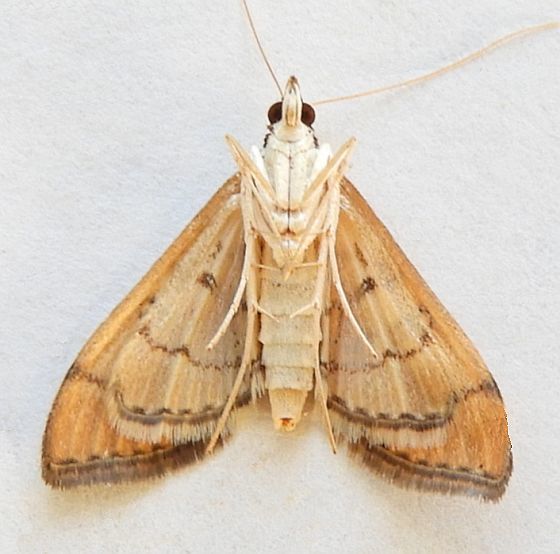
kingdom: Animalia
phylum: Arthropoda
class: Insecta
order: Lepidoptera
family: Crambidae
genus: Lamprosema
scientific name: Lamprosema Blepharomastix ranalis
